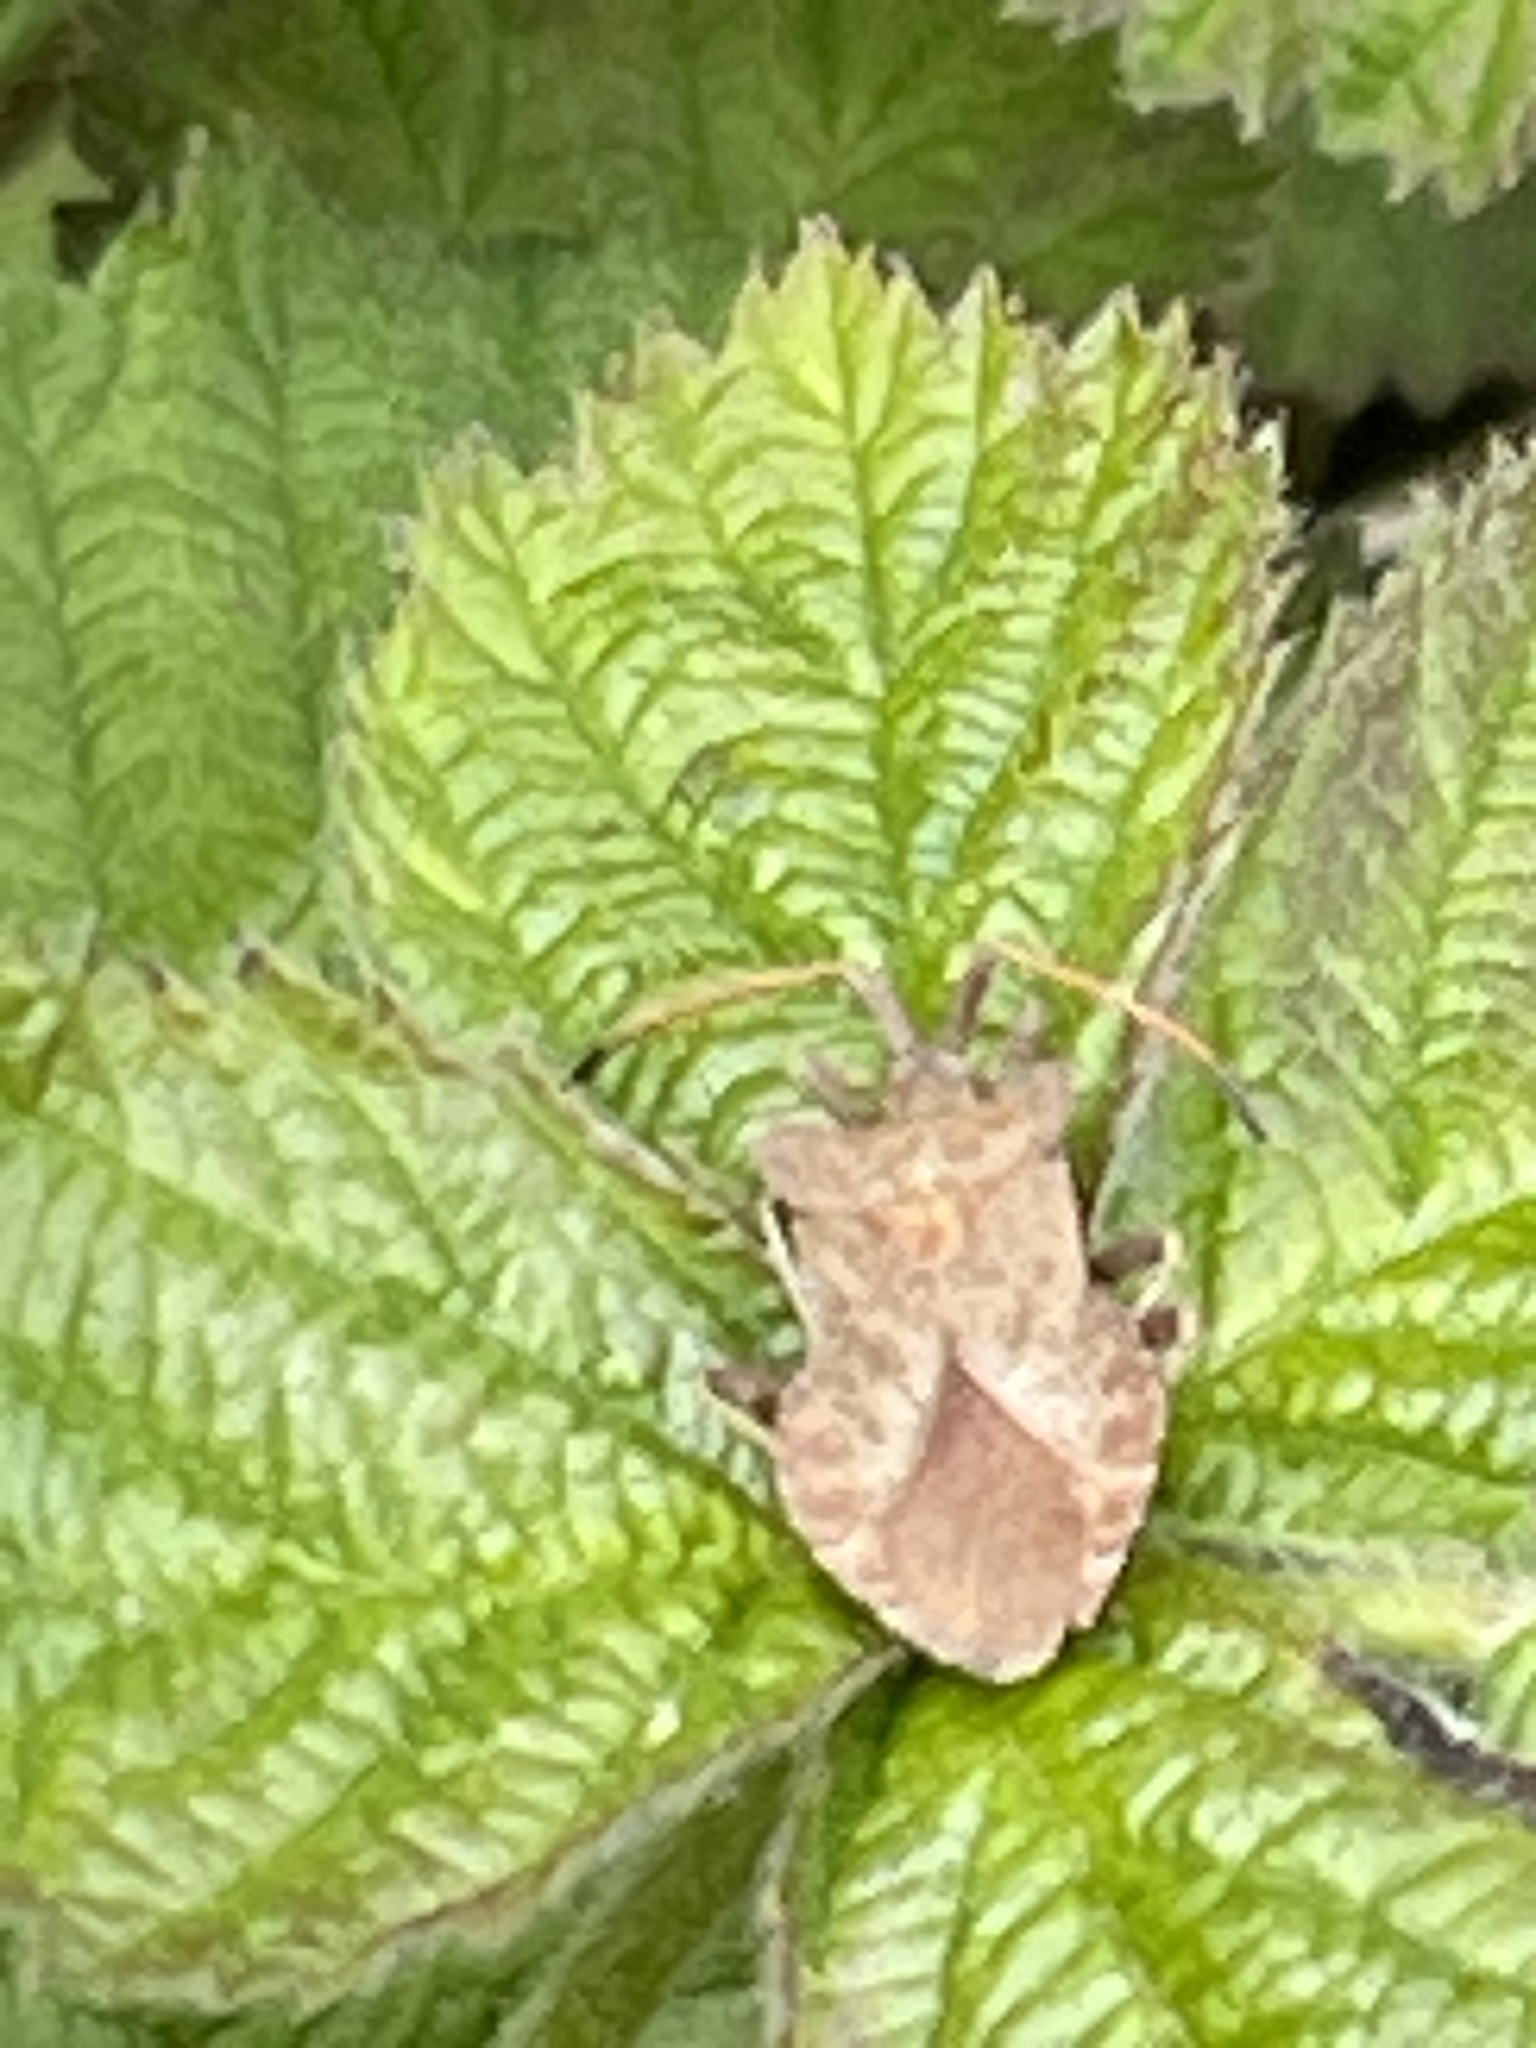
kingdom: Animalia
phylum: Arthropoda
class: Insecta
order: Hemiptera
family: Coreidae
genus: Coreus
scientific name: Coreus marginatus
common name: Dock bug
